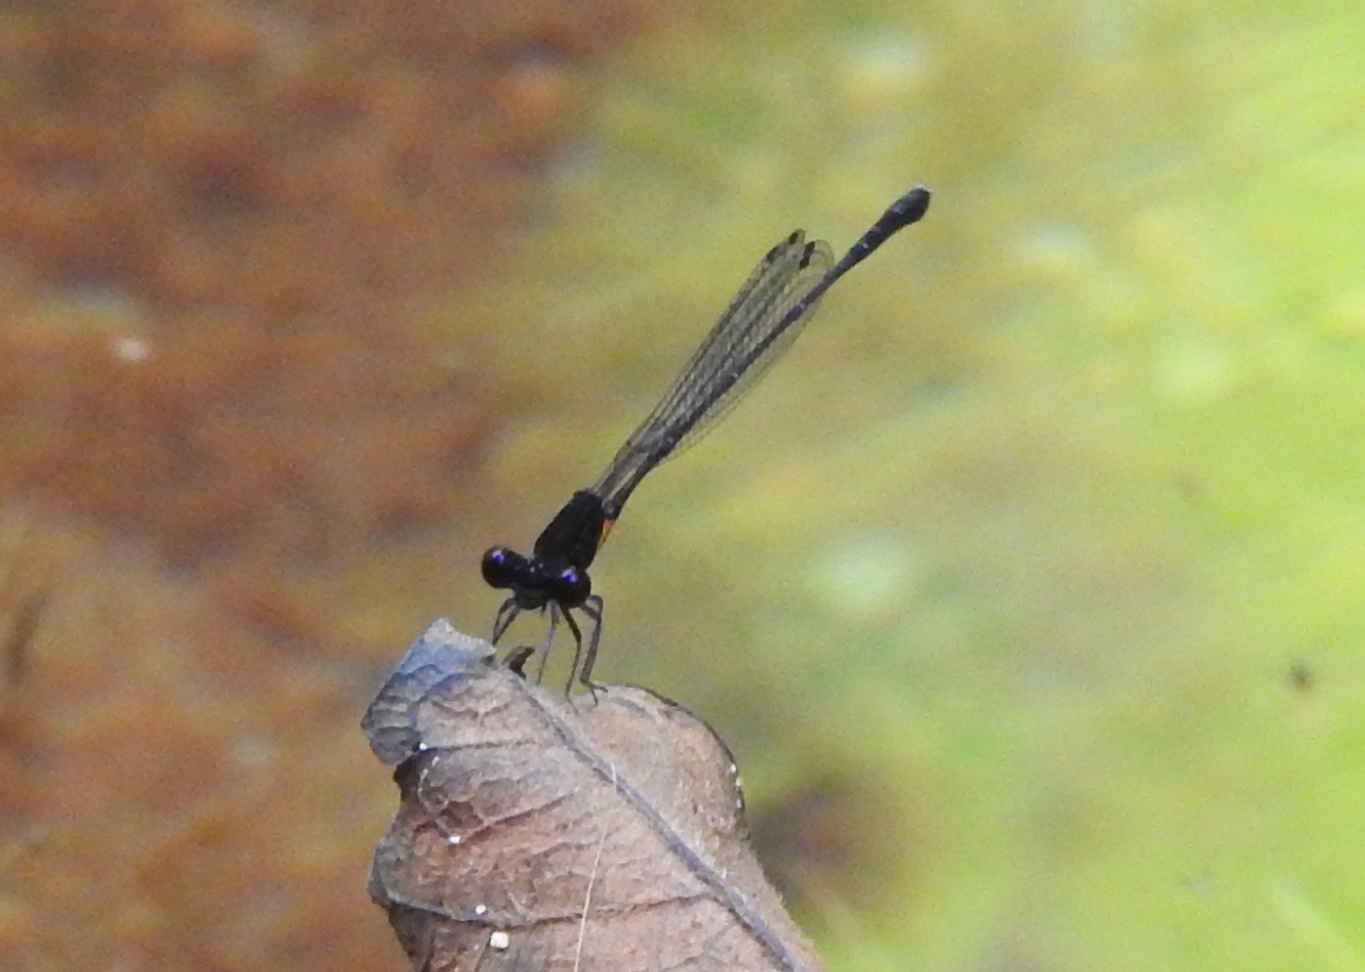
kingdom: Animalia
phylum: Arthropoda
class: Insecta
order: Odonata
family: Platycnemididae
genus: Prodasineura
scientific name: Prodasineura verticalis
